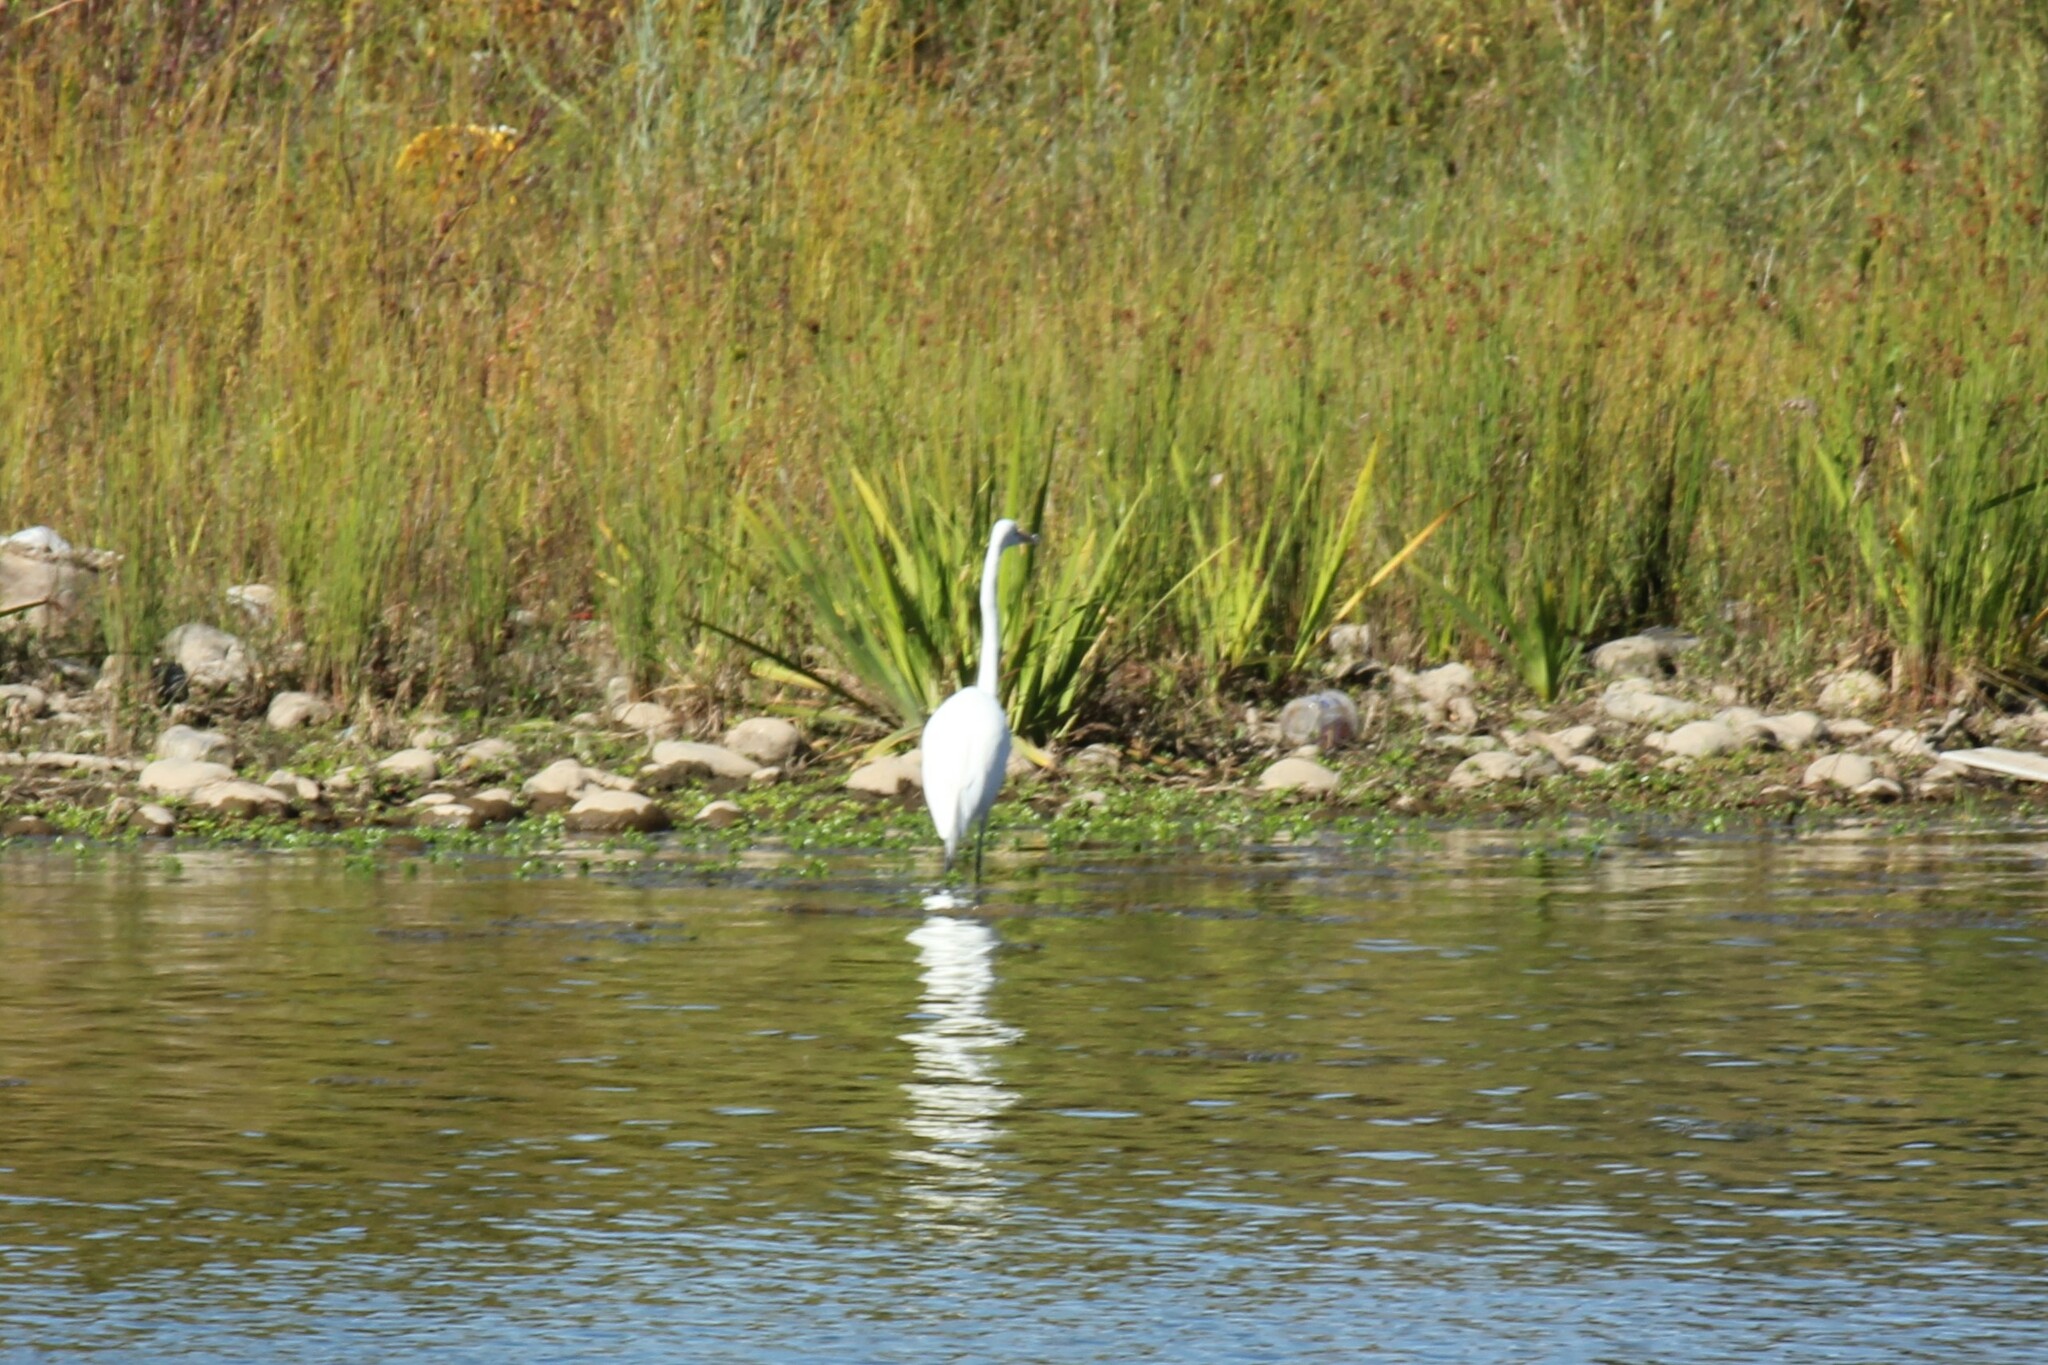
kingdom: Animalia
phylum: Chordata
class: Aves
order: Pelecaniformes
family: Ardeidae
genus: Ardea
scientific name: Ardea alba
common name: Great egret
